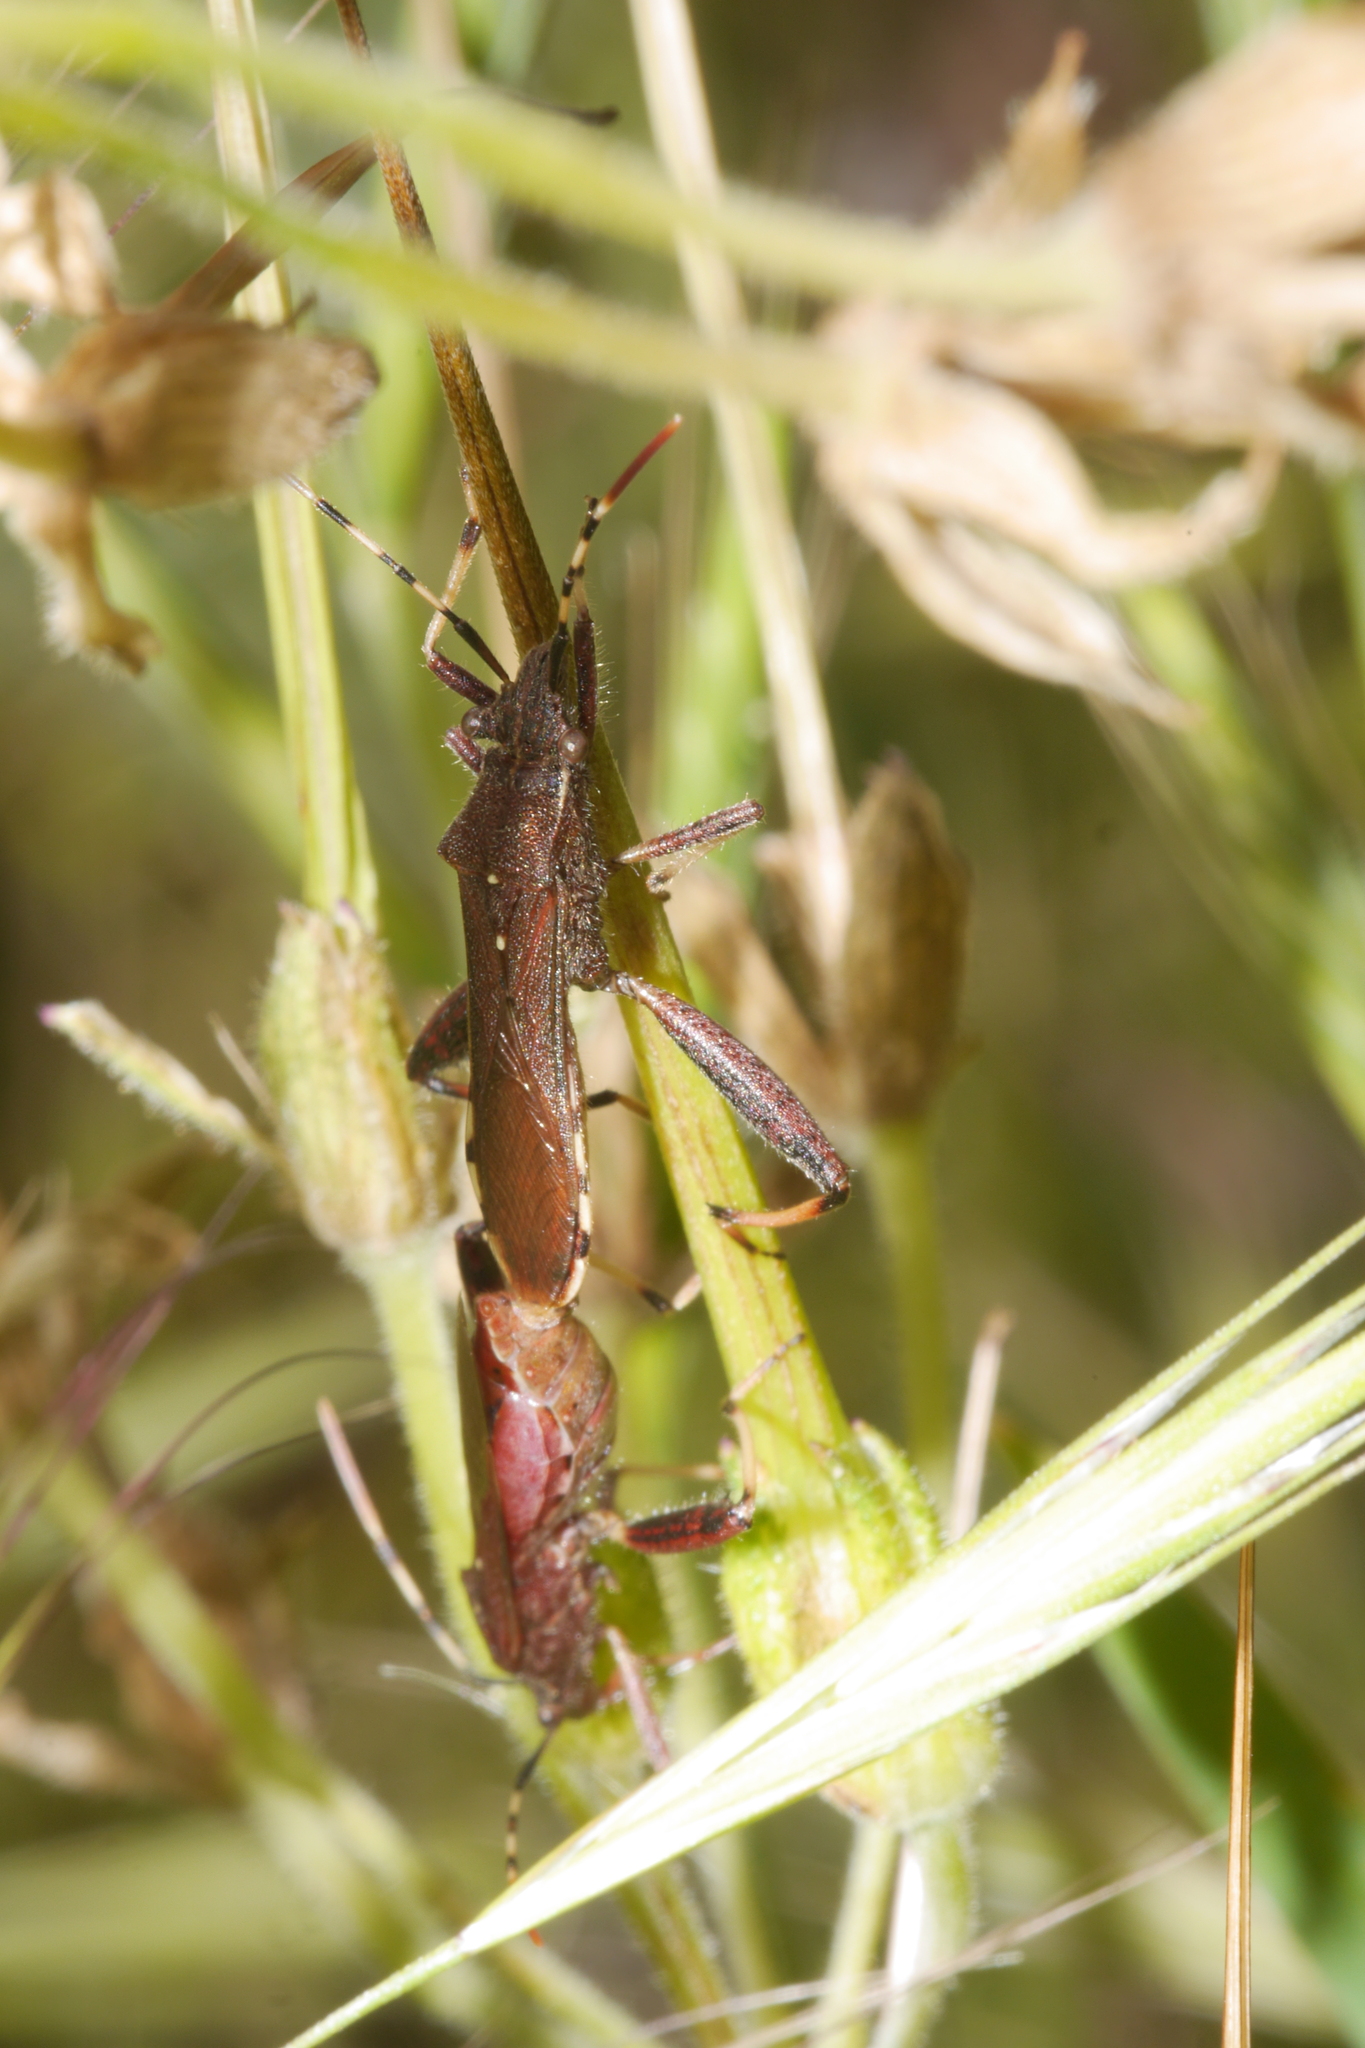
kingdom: Animalia
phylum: Arthropoda
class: Insecta
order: Hemiptera
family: Alydidae
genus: Camptopus
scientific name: Camptopus lateralis
